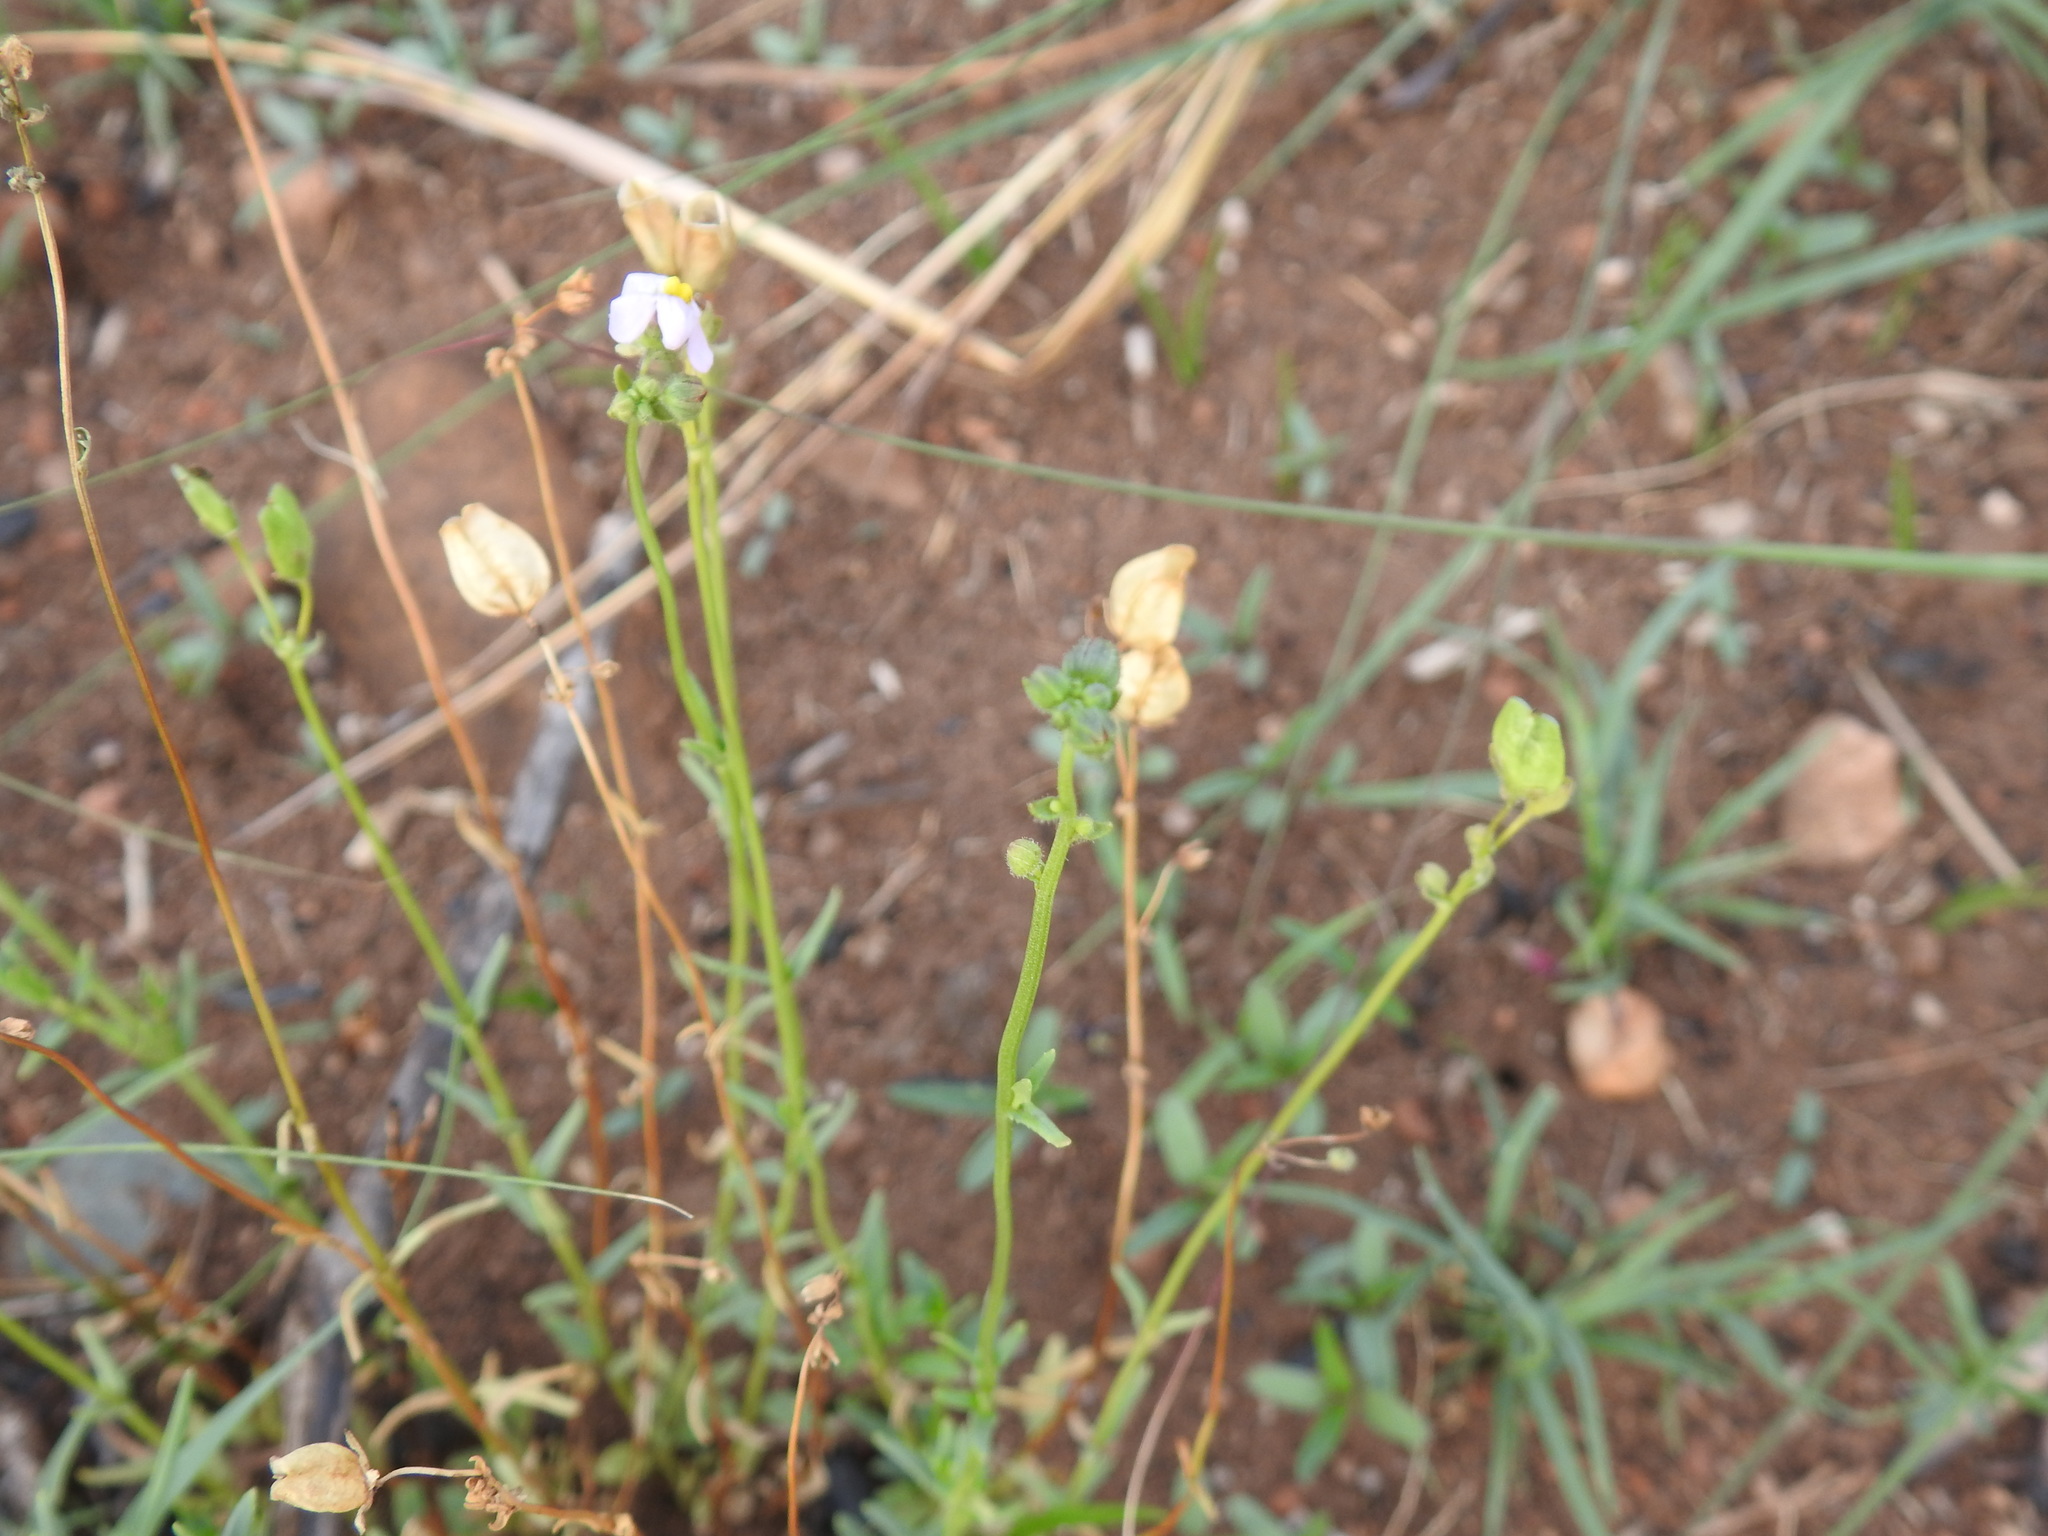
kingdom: Plantae
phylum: Tracheophyta
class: Magnoliopsida
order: Lamiales
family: Scrophulariaceae
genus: Nemesia
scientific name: Nemesia fruticans
